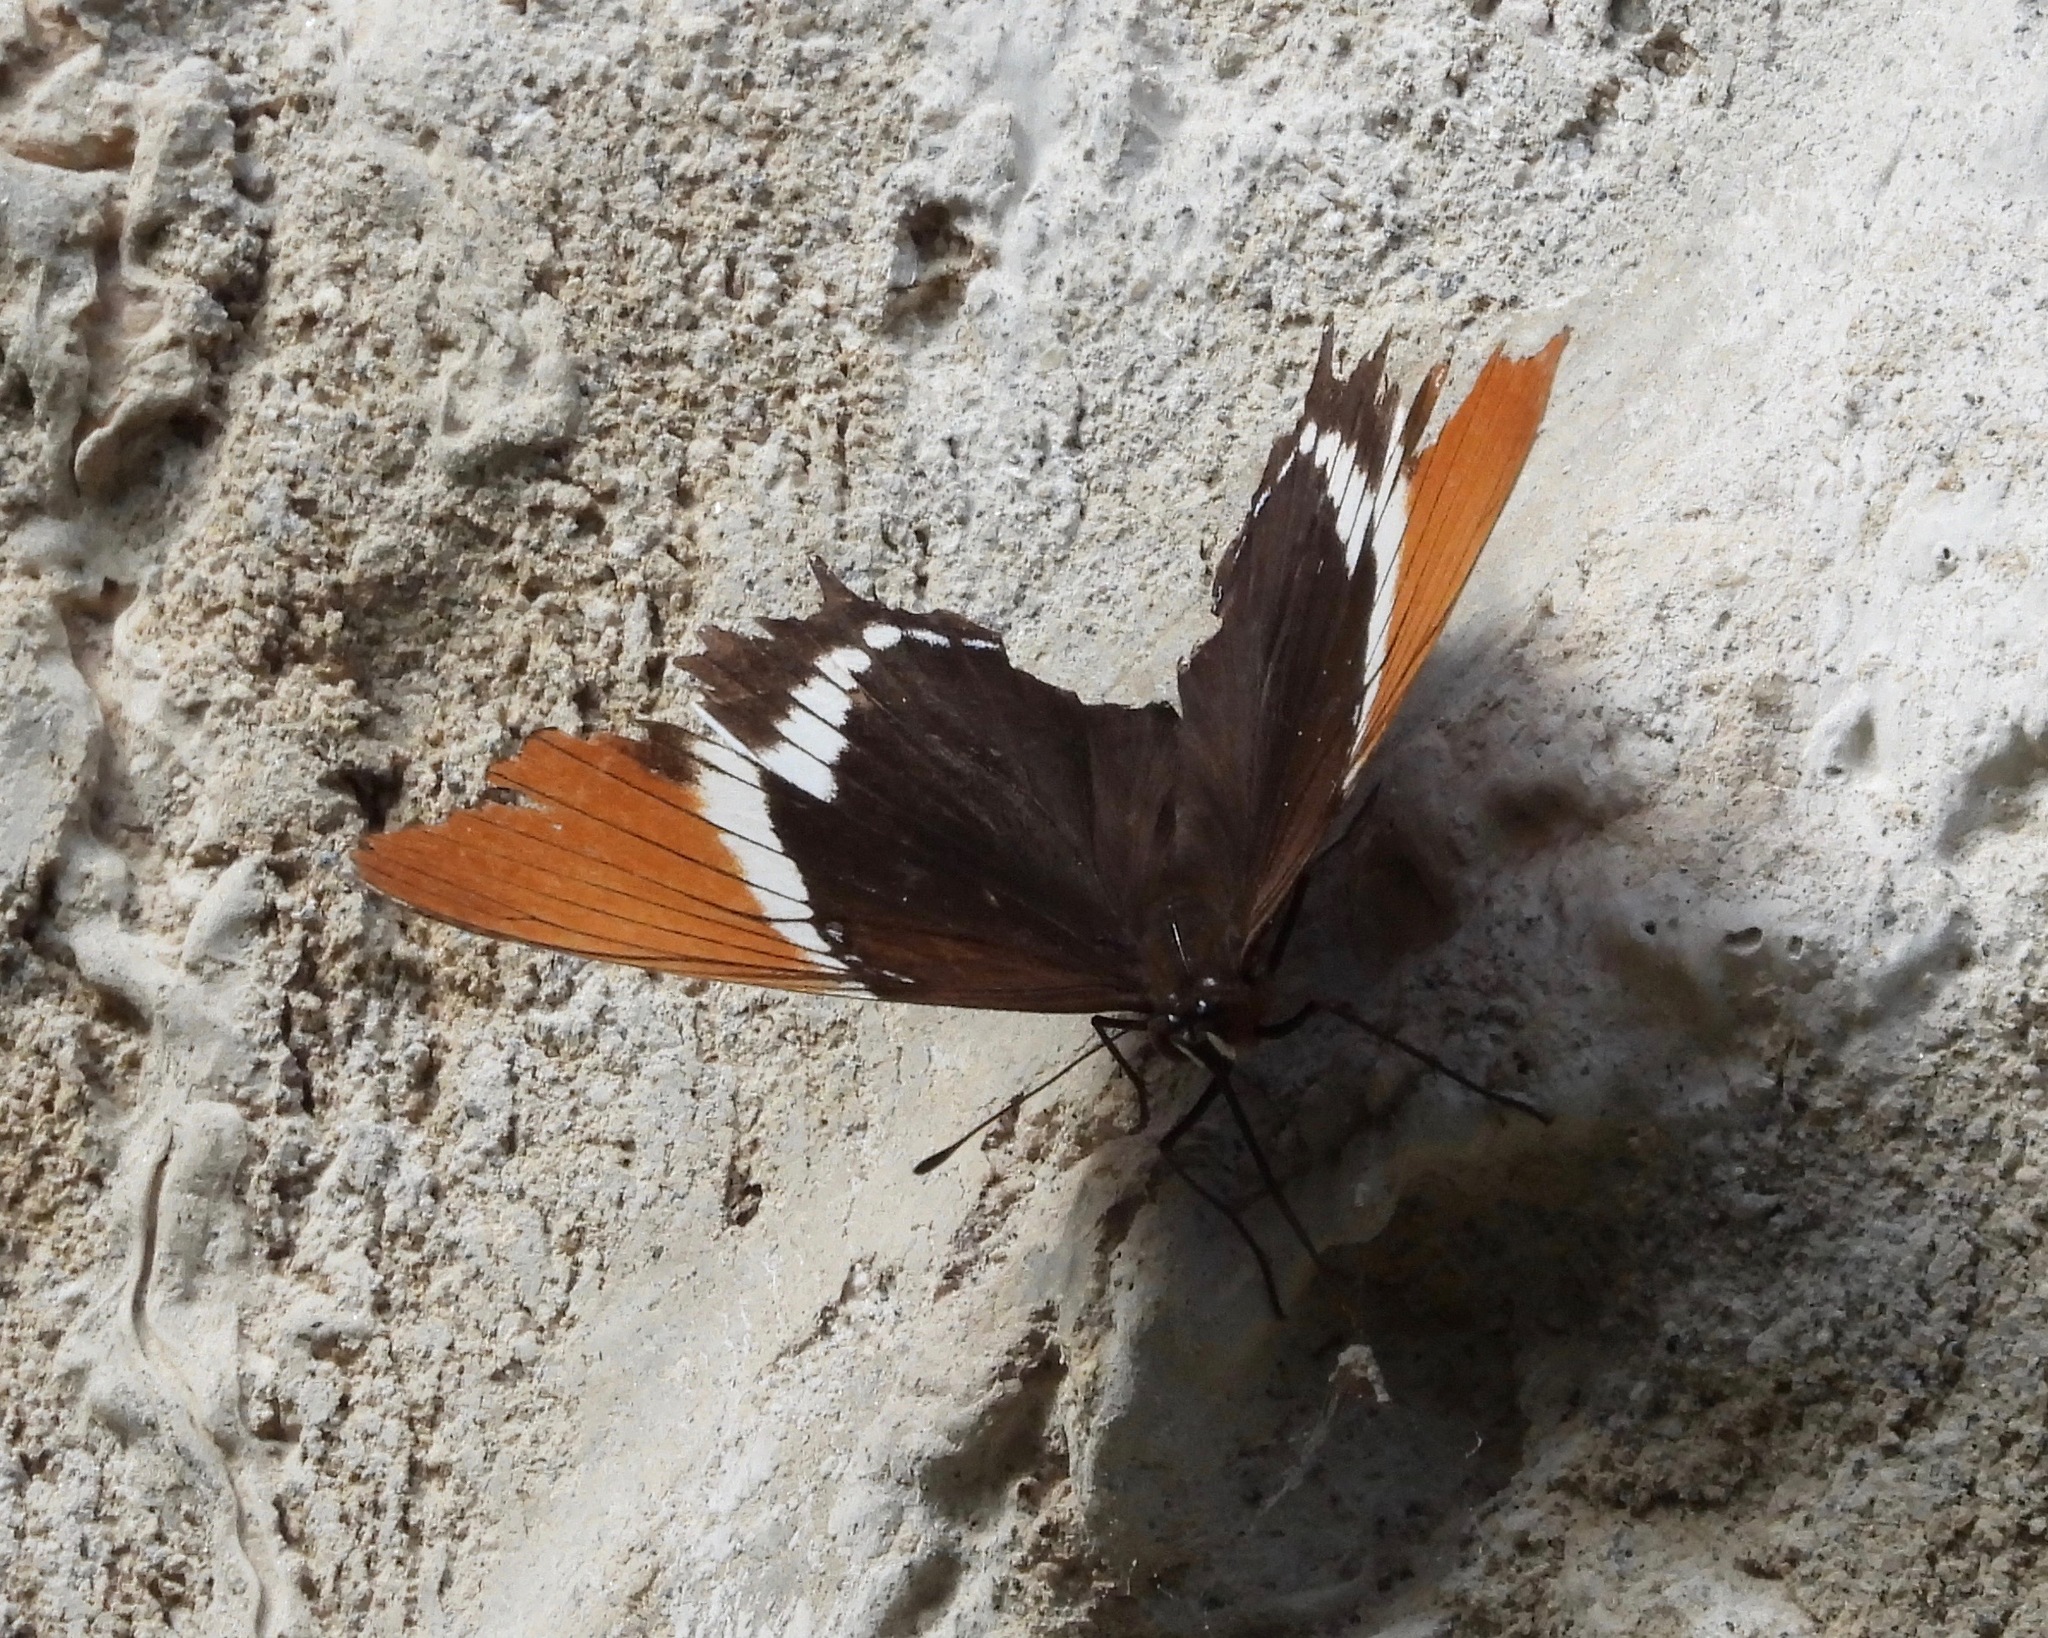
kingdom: Animalia
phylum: Arthropoda
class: Insecta
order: Lepidoptera
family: Nymphalidae
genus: Siproeta
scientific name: Siproeta epaphus
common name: Rusty-tipped page
